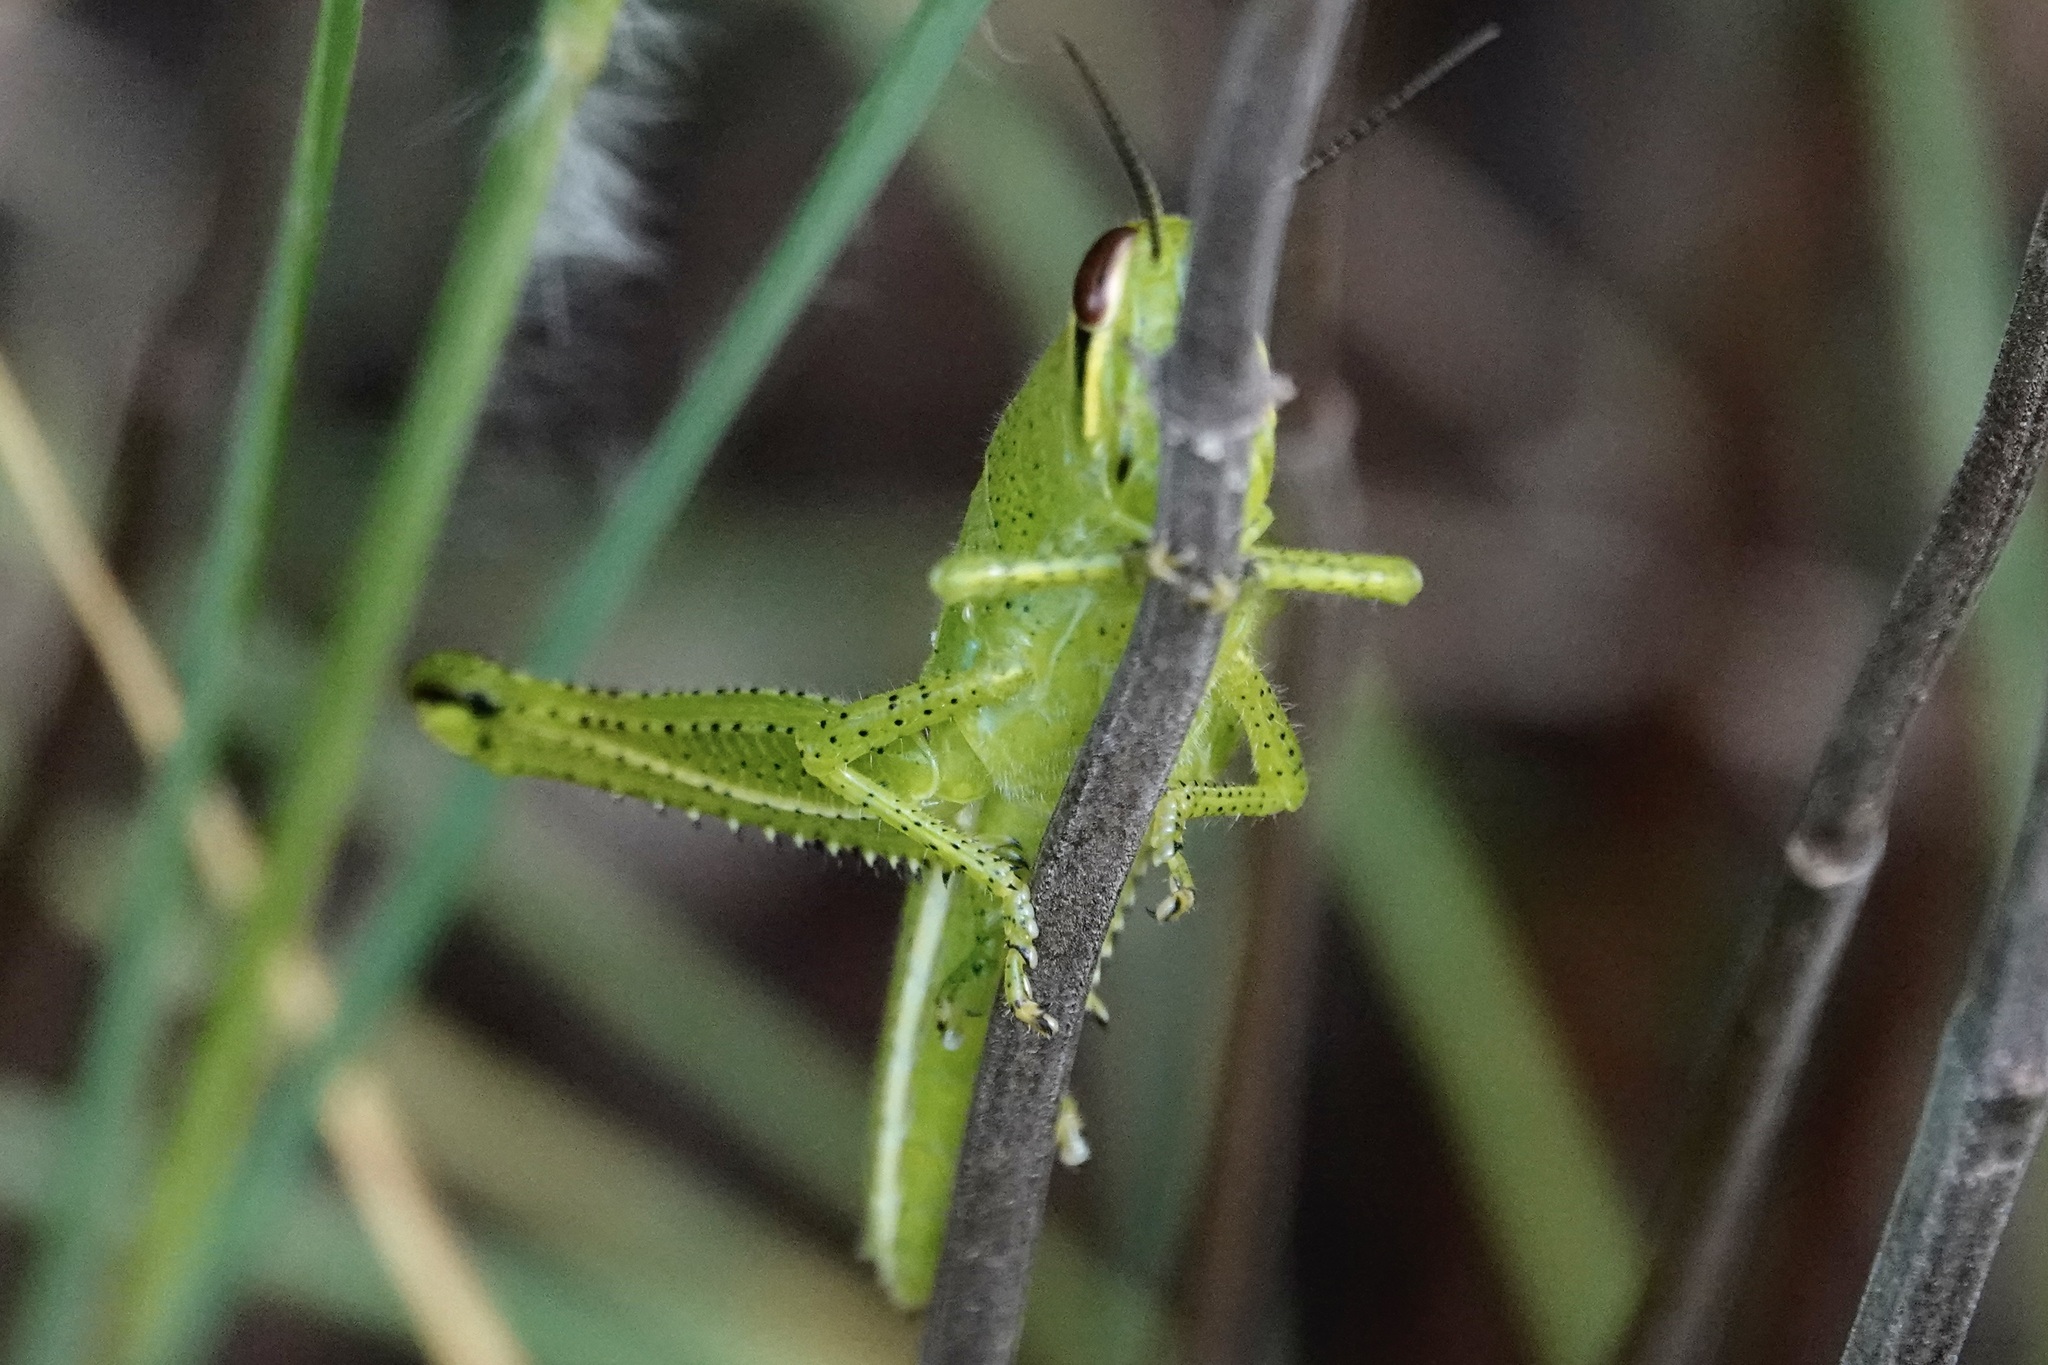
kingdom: Animalia
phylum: Arthropoda
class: Insecta
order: Orthoptera
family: Acrididae
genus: Schistocerca
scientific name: Schistocerca americana
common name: American bird locust
